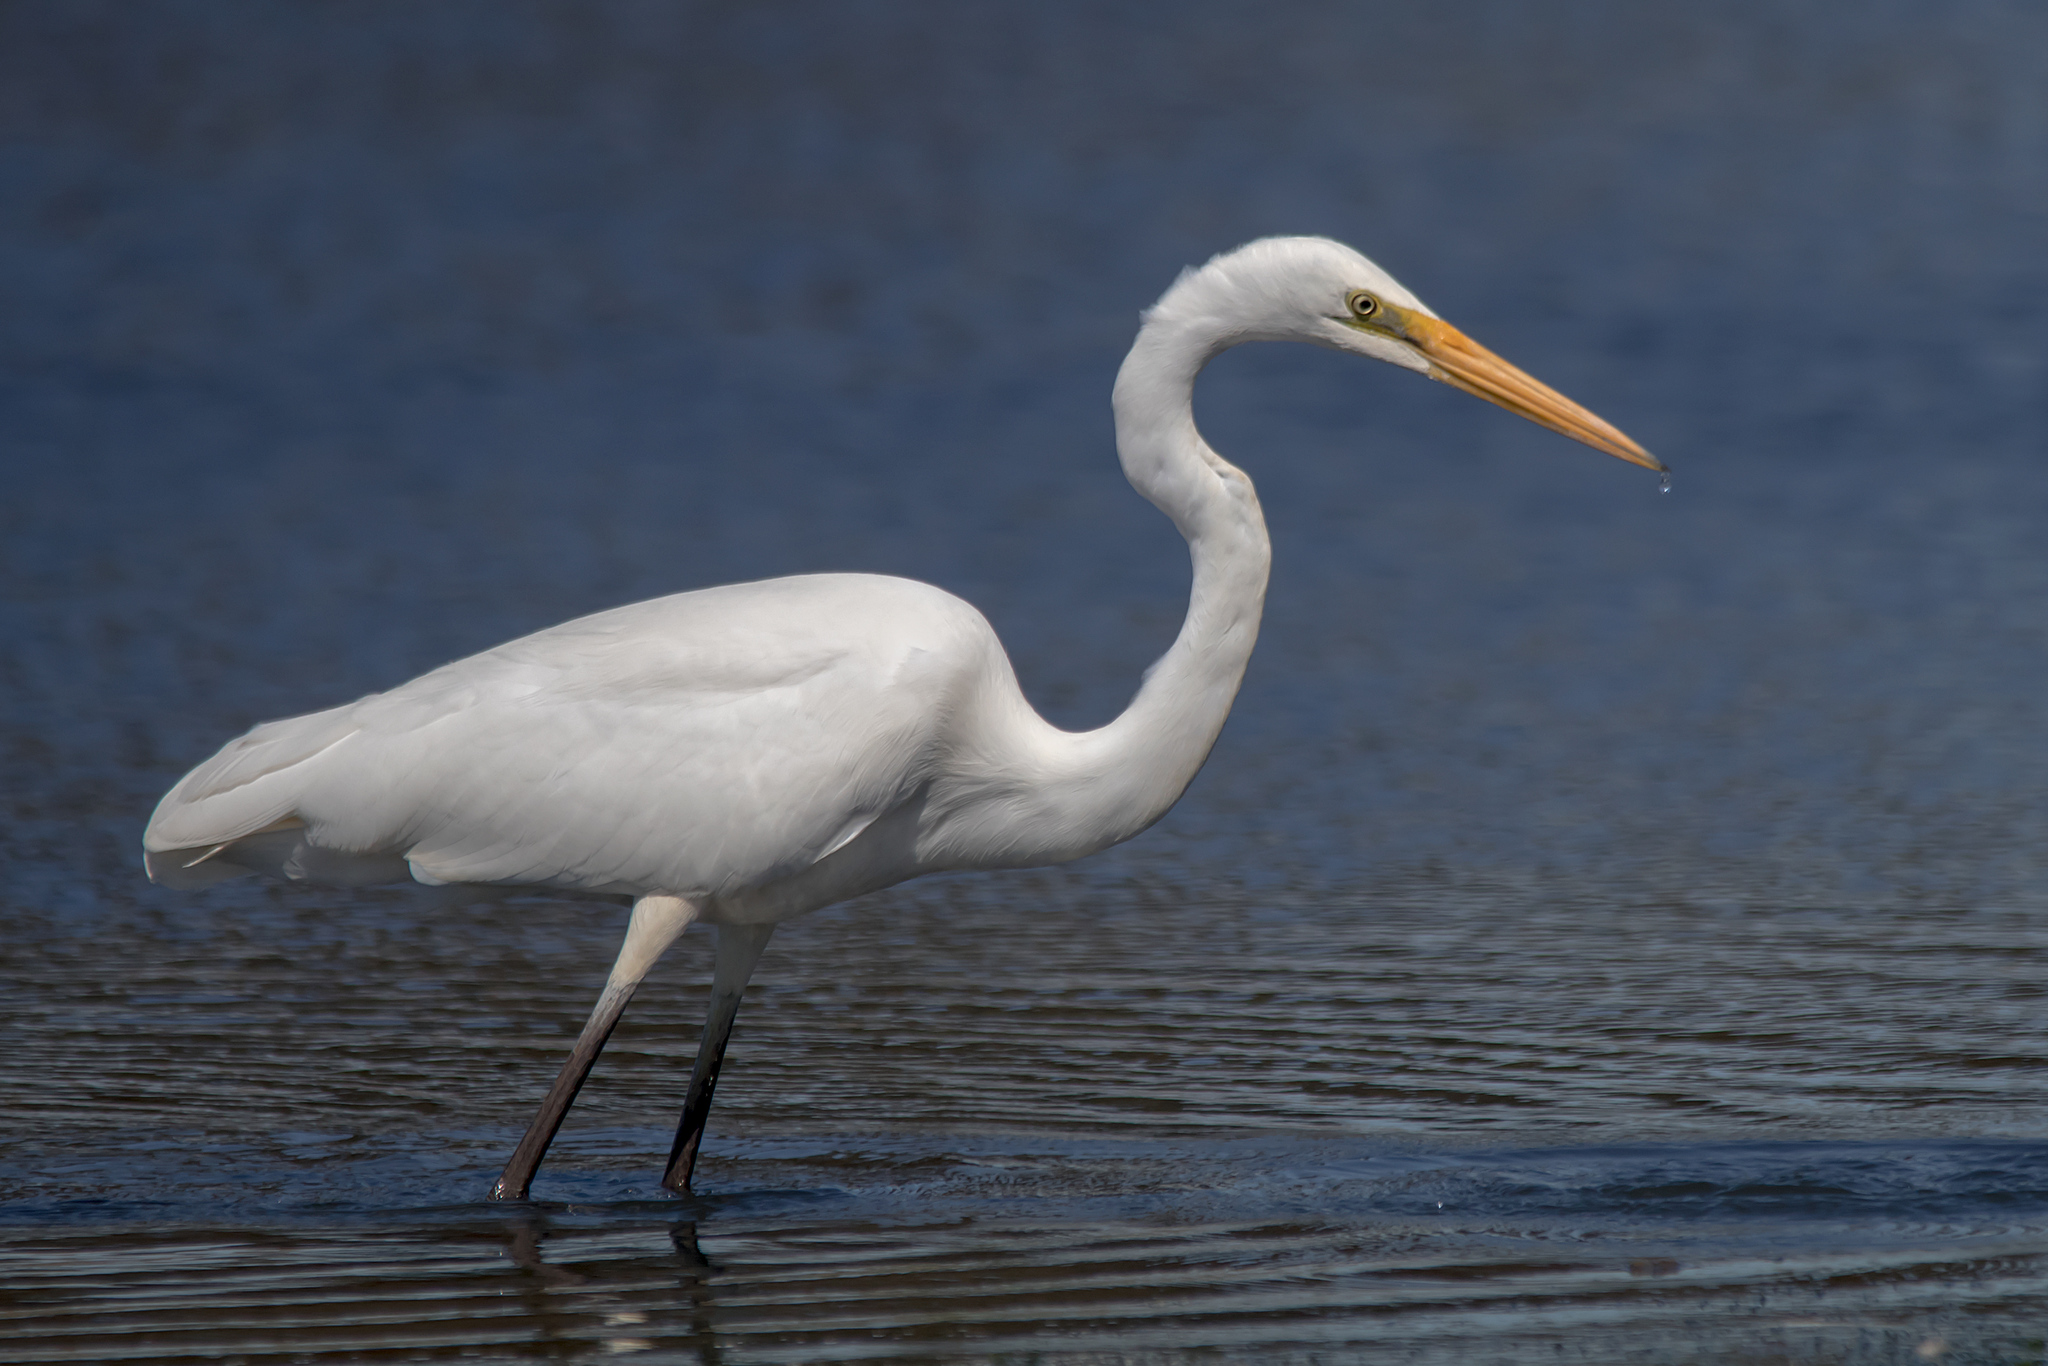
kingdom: Animalia
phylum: Chordata
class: Aves
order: Pelecaniformes
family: Ardeidae
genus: Ardea
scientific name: Ardea alba
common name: Great egret
